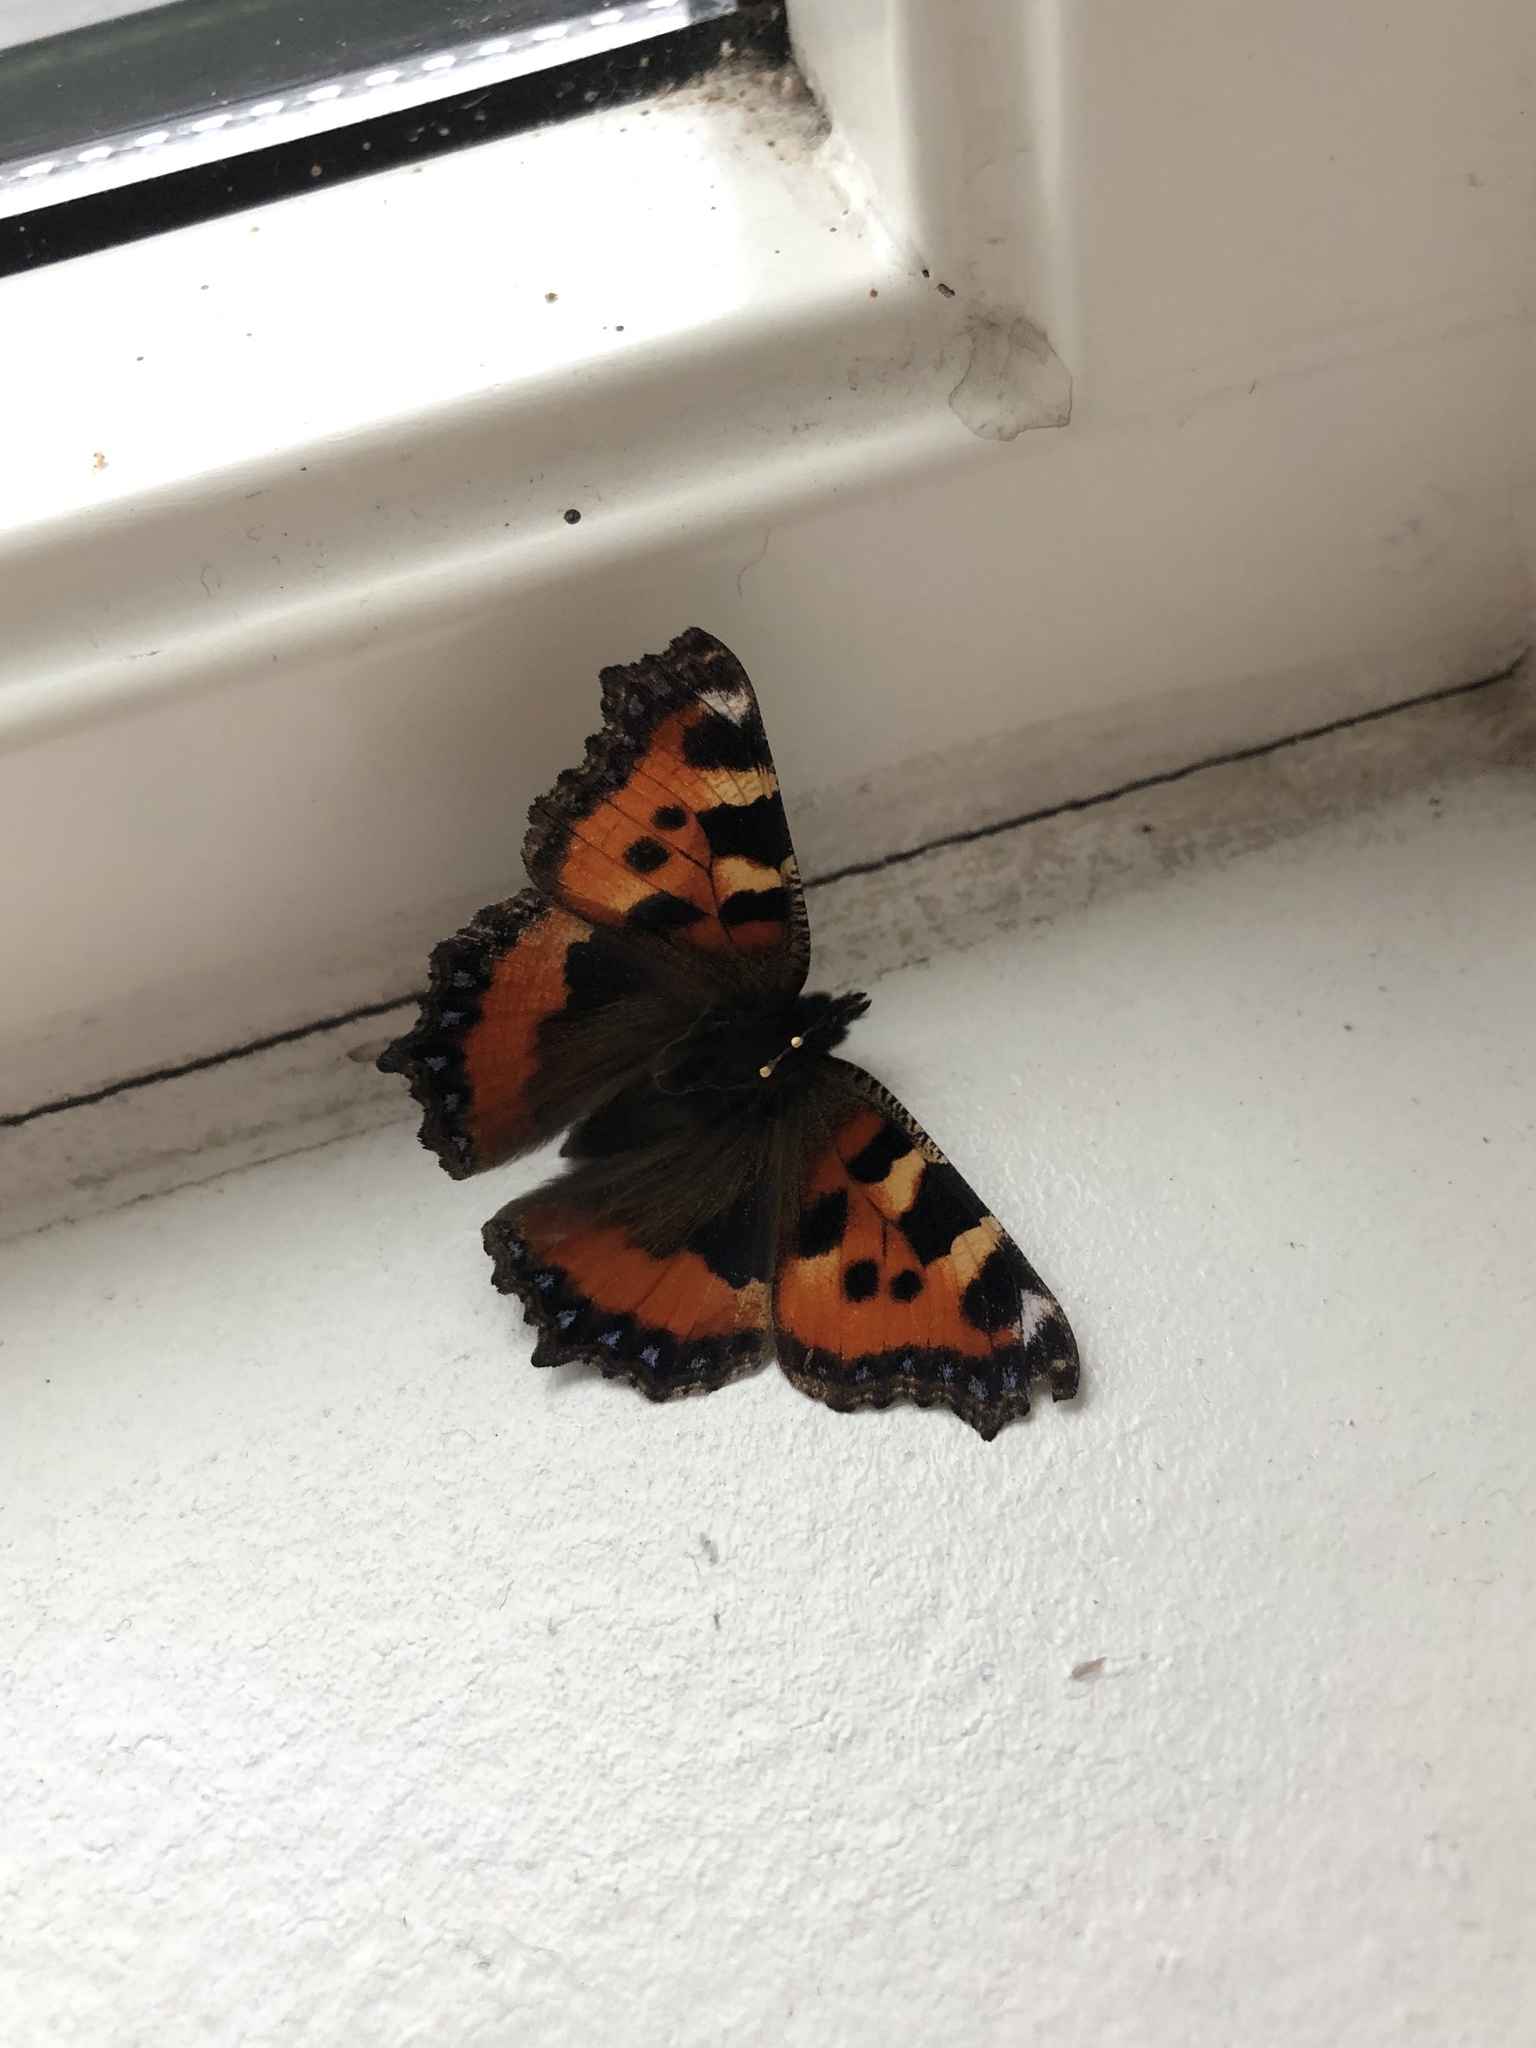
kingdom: Animalia
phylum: Arthropoda
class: Insecta
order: Lepidoptera
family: Nymphalidae
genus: Aglais
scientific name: Aglais urticae
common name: Small tortoiseshell
